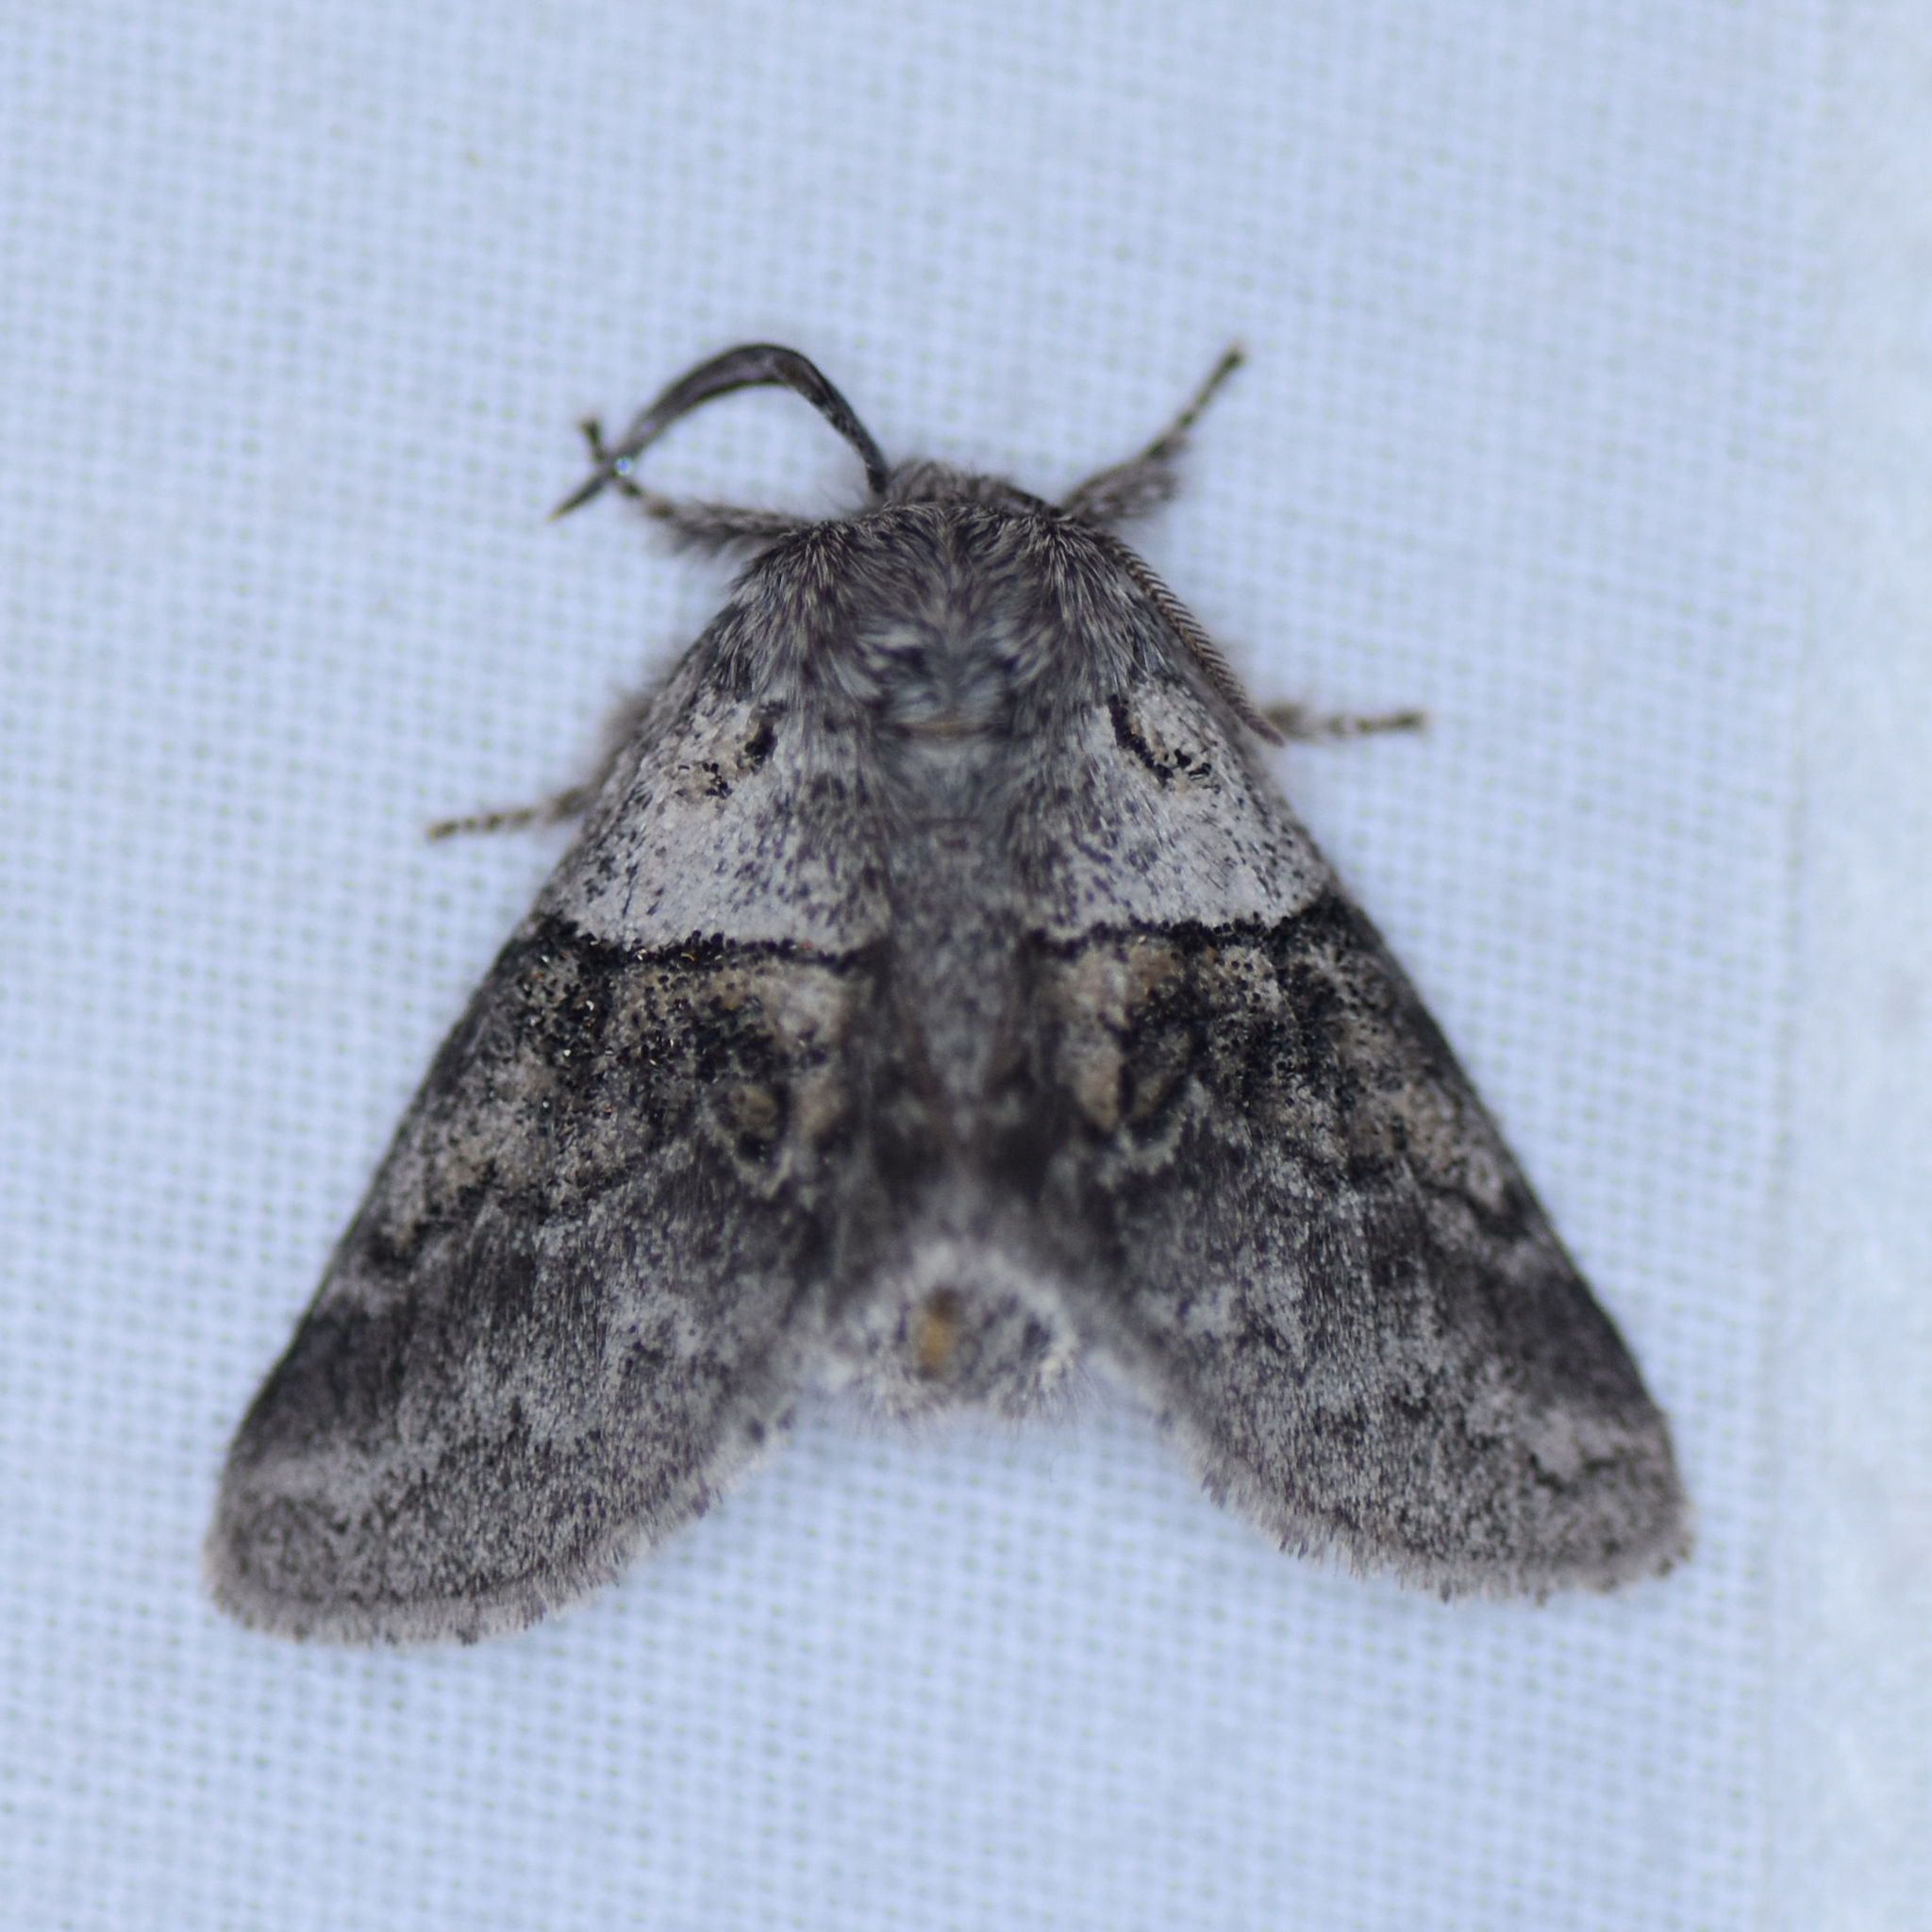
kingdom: Animalia
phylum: Arthropoda
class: Insecta
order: Lepidoptera
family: Notodontidae
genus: Gluphisia
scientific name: Gluphisia septentrionis
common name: Common gluphisia
